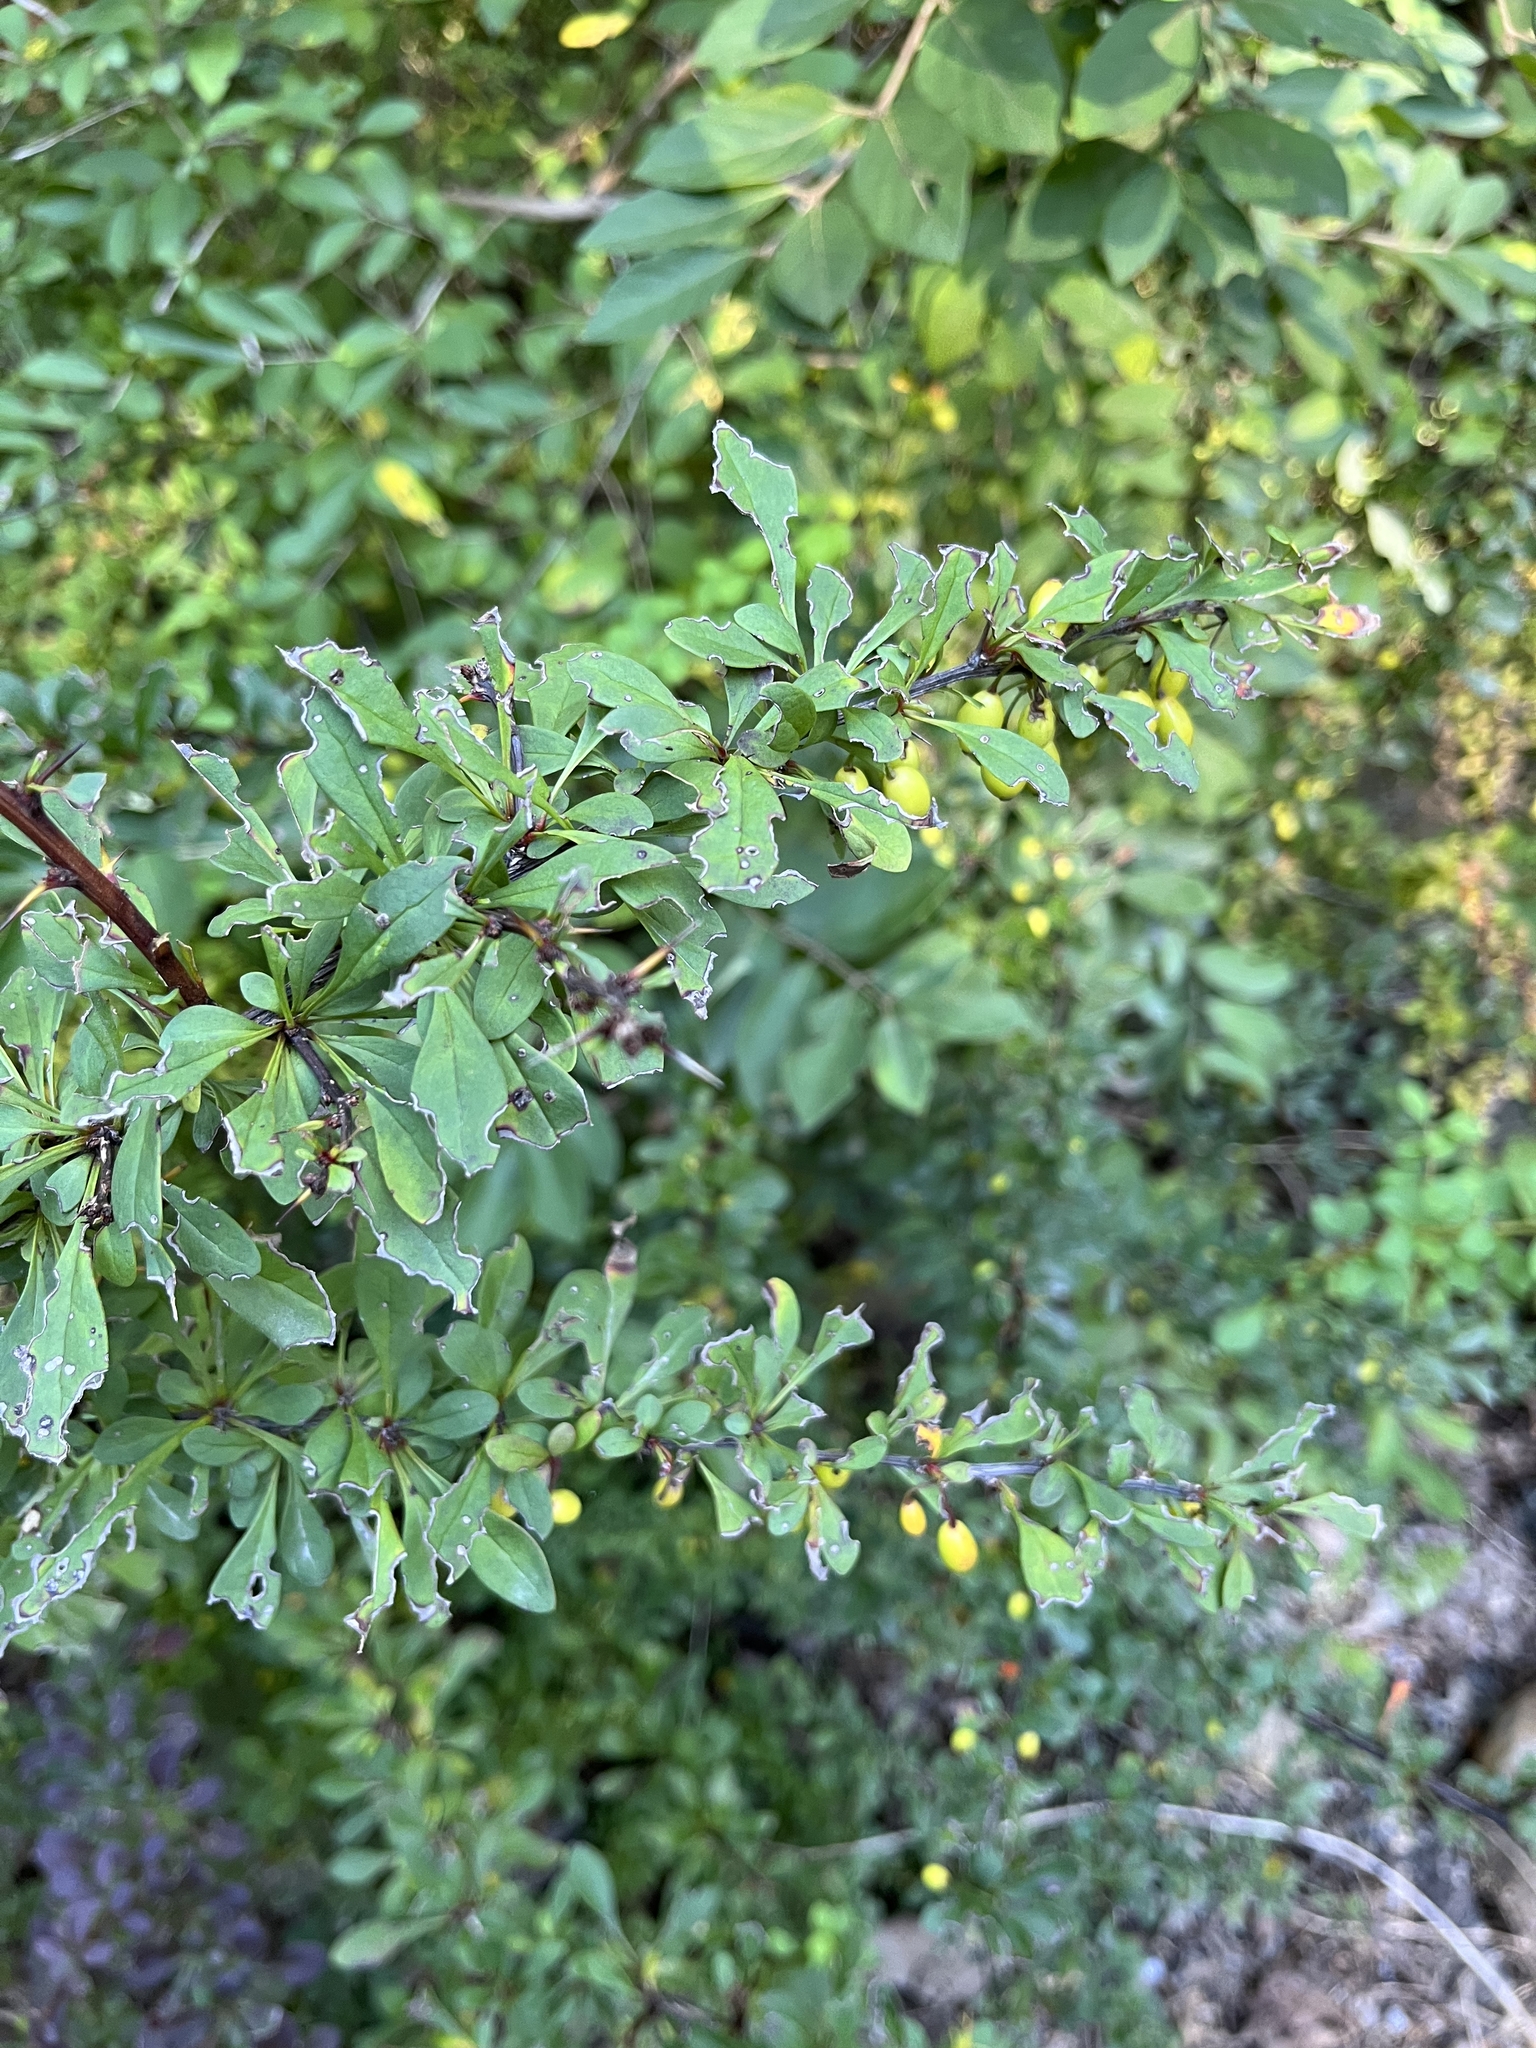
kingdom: Plantae
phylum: Tracheophyta
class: Magnoliopsida
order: Ranunculales
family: Berberidaceae
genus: Berberis
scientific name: Berberis thunbergii
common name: Japanese barberry
